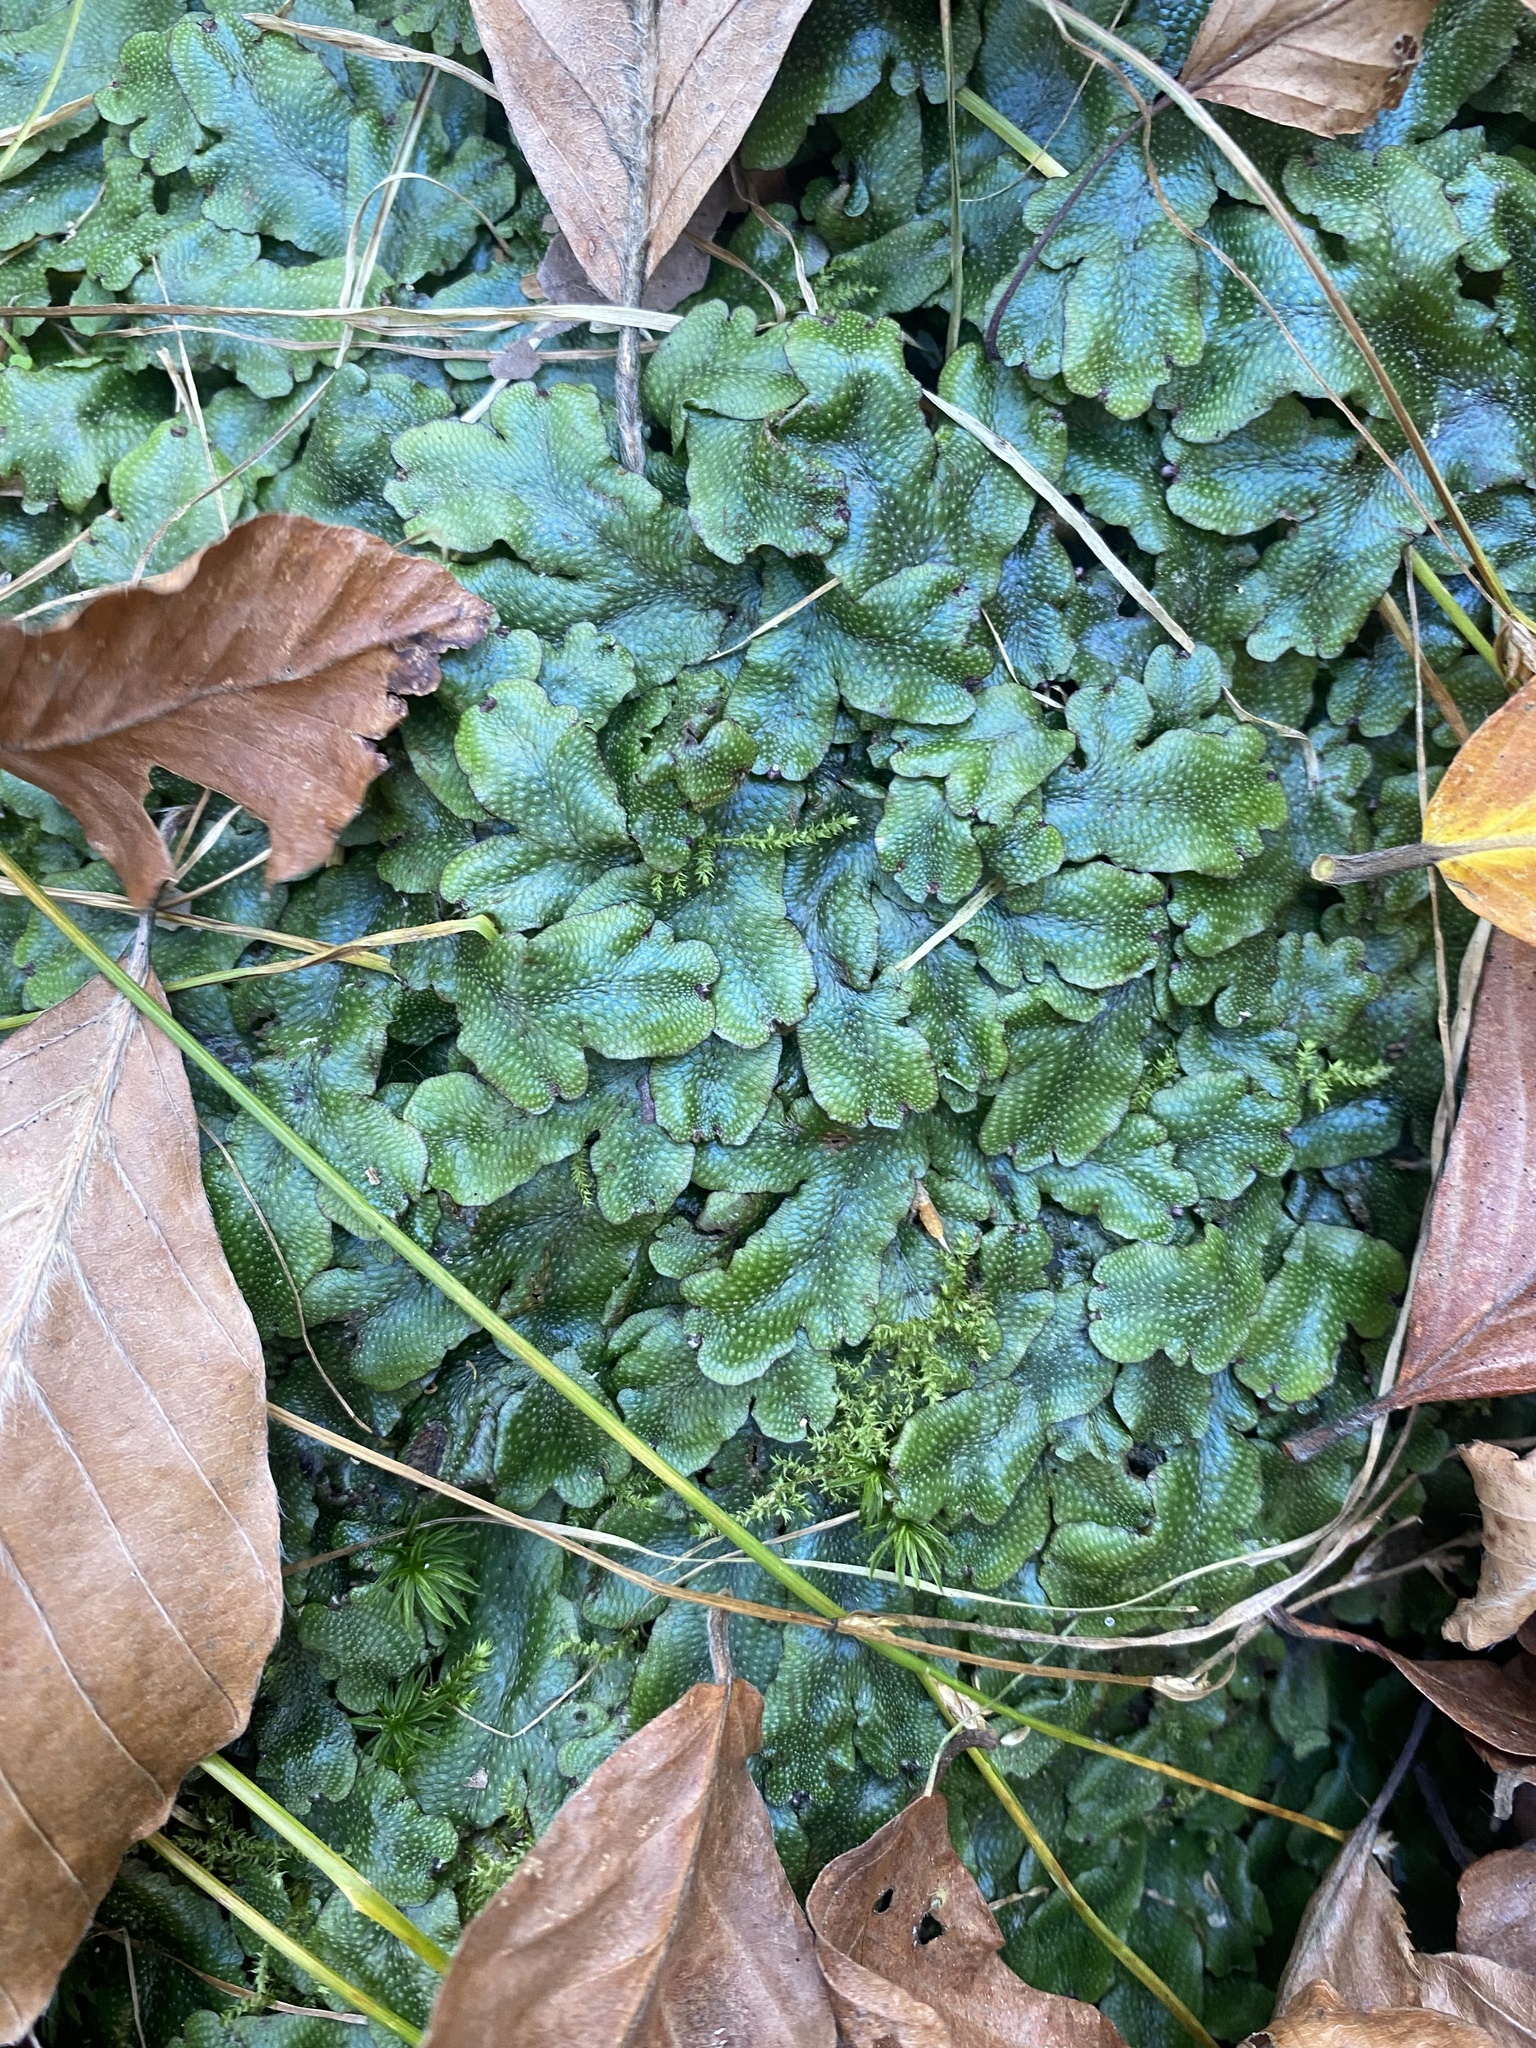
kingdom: Plantae
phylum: Marchantiophyta
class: Marchantiopsida
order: Marchantiales
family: Conocephalaceae
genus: Conocephalum
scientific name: Conocephalum salebrosum
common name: Cat-tongue liverwort
